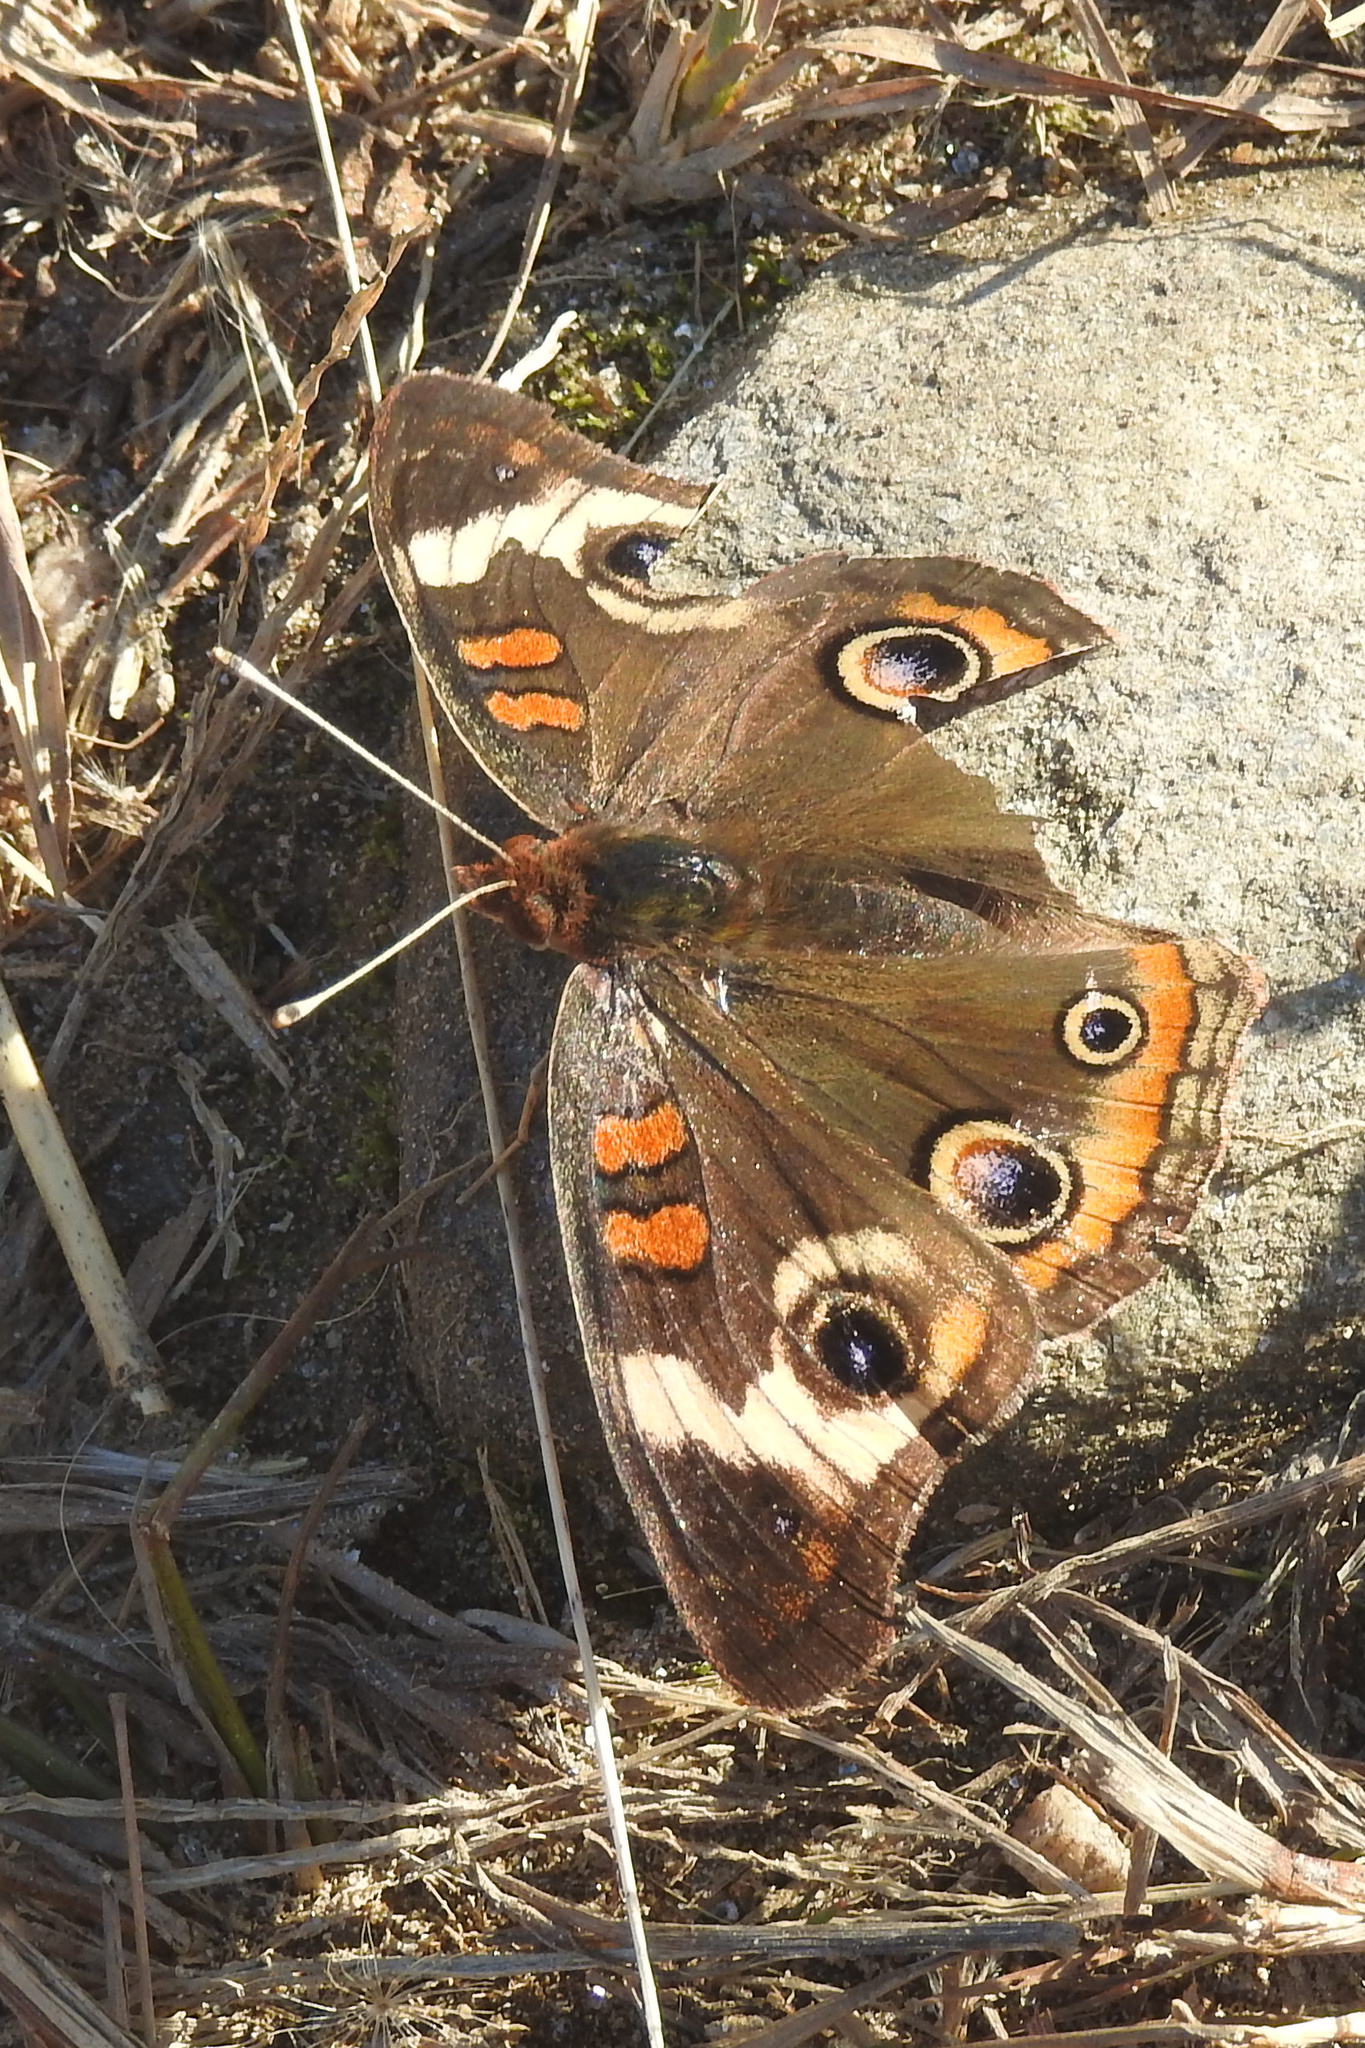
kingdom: Animalia
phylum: Arthropoda
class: Insecta
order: Lepidoptera
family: Nymphalidae
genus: Junonia
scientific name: Junonia coenia
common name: Common buckeye
